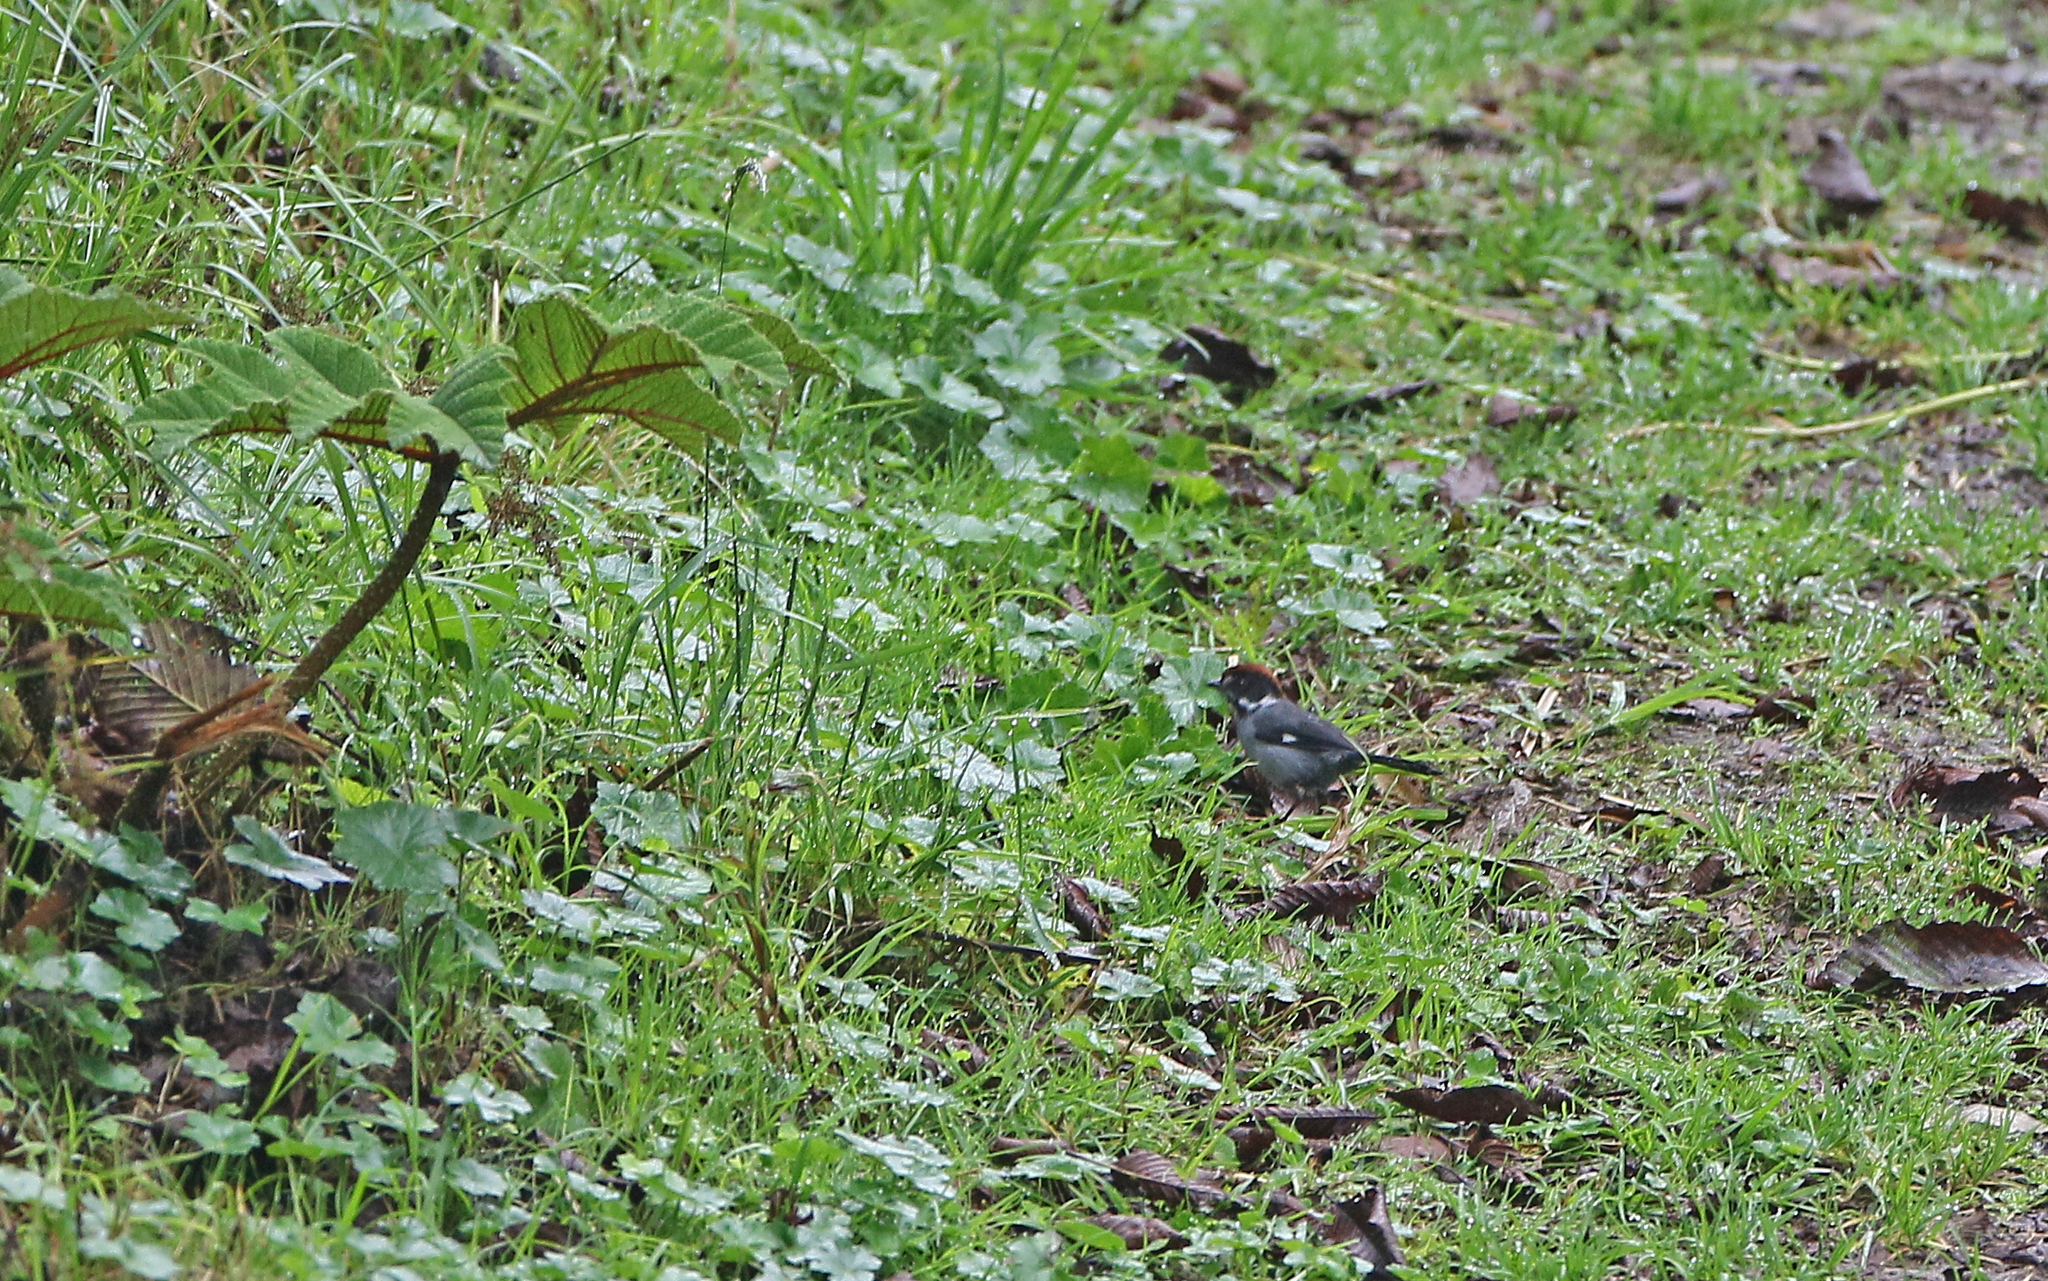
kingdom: Animalia
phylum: Chordata
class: Aves
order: Passeriformes
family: Passerellidae
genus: Atlapetes
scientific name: Atlapetes schistaceus
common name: Slaty brushfinch
